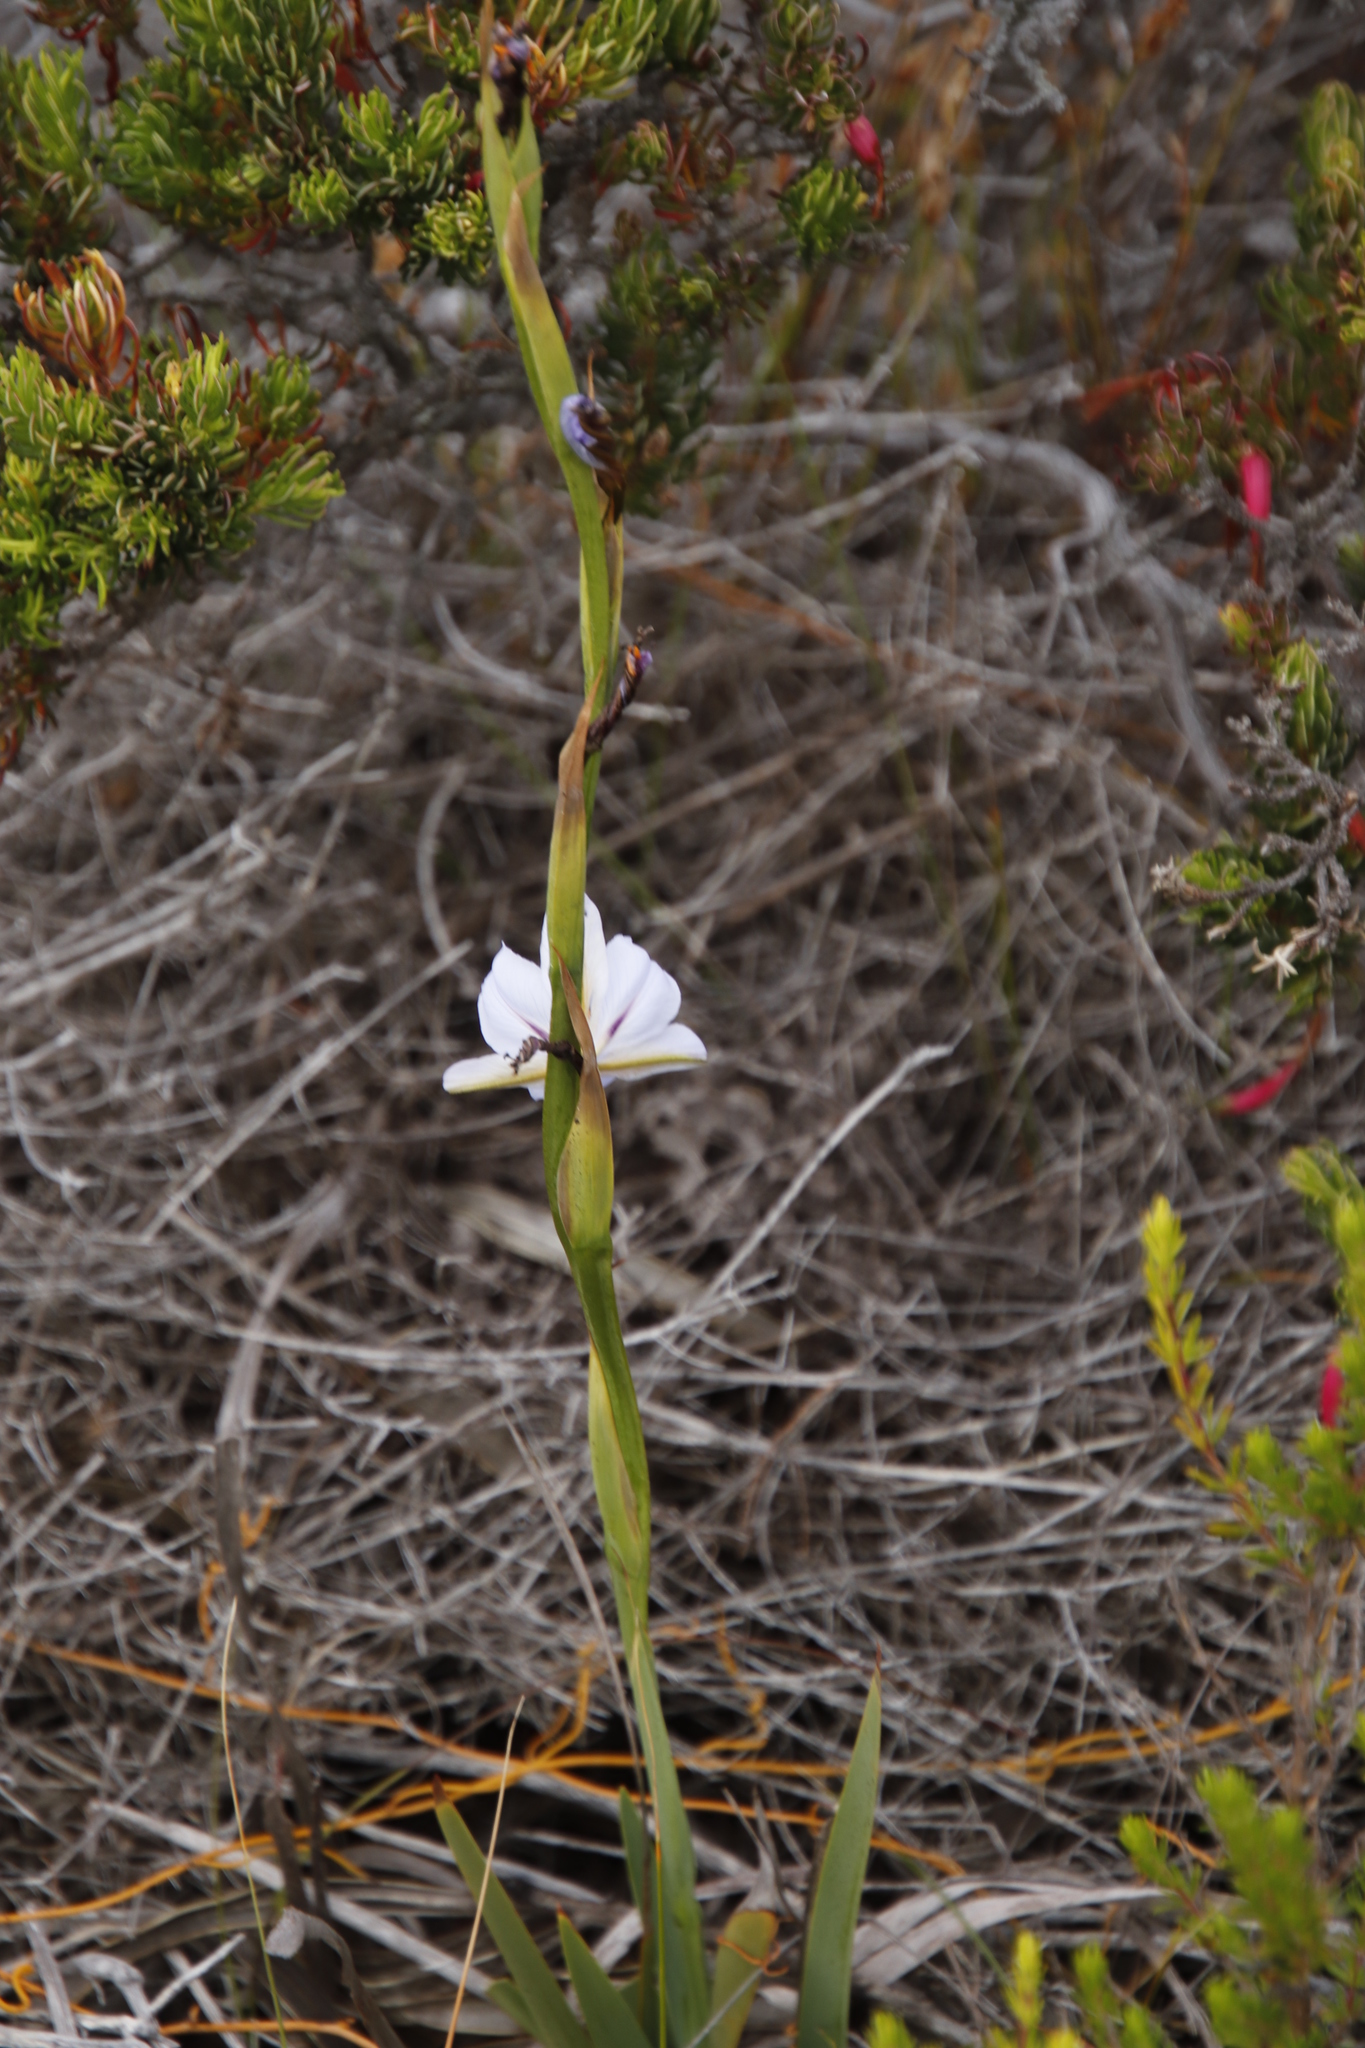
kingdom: Plantae
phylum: Tracheophyta
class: Liliopsida
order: Asparagales
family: Iridaceae
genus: Aristea
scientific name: Aristea spiralis
